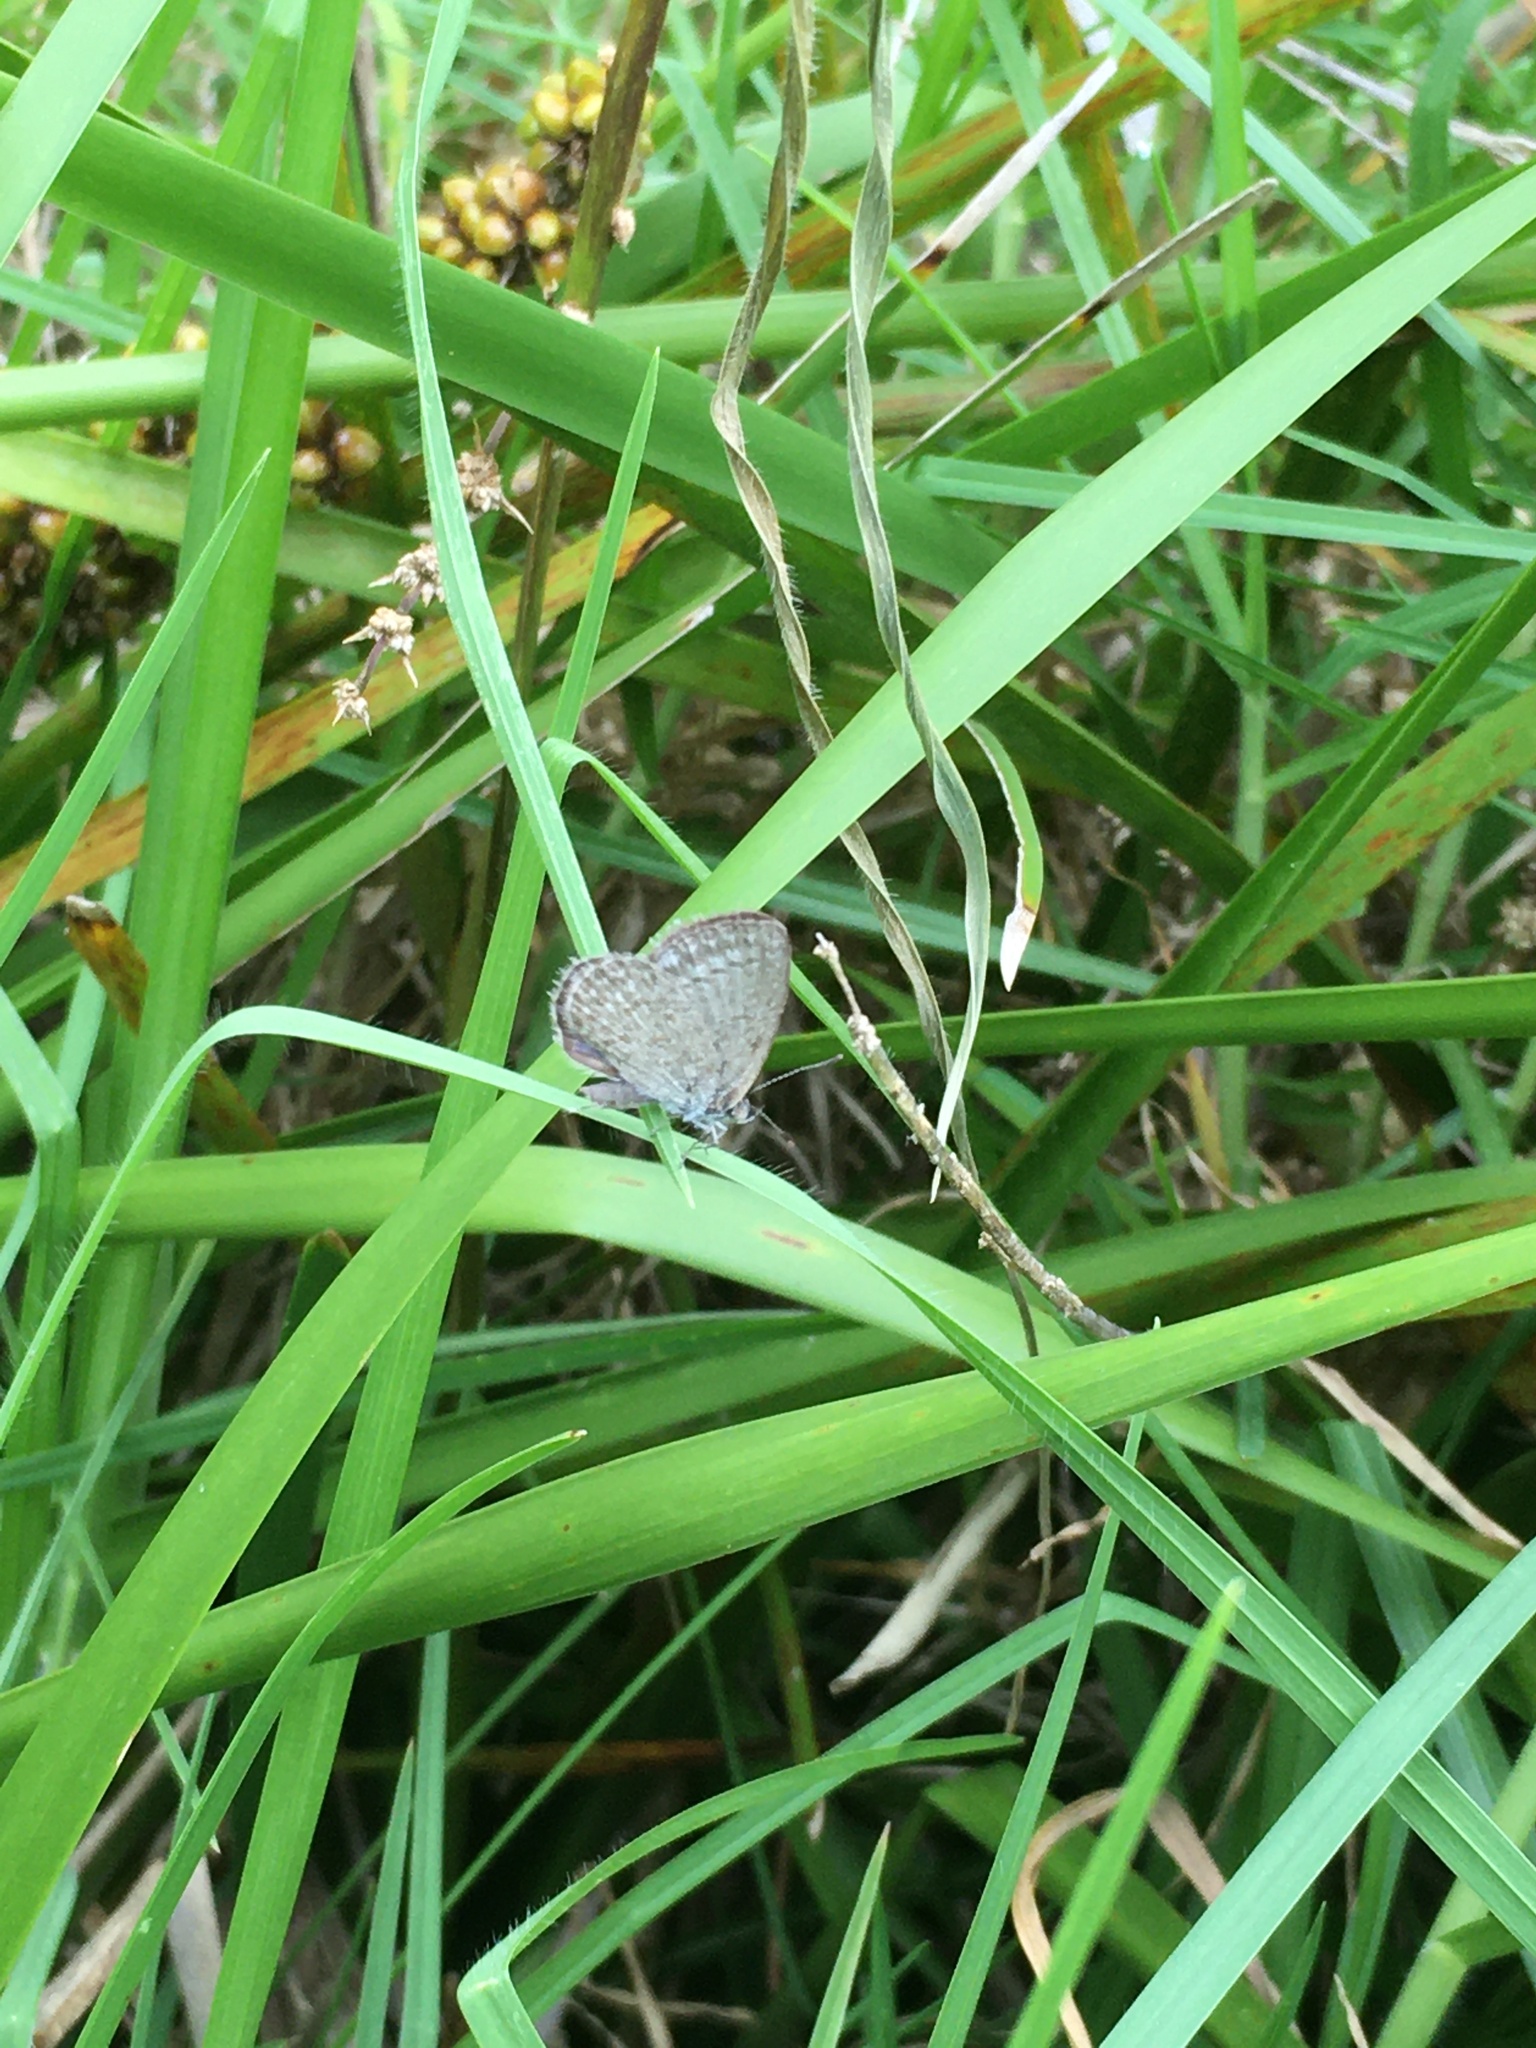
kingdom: Animalia
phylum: Arthropoda
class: Insecta
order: Lepidoptera
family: Lycaenidae
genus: Zizina
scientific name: Zizina otis
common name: Lesser grass blue
